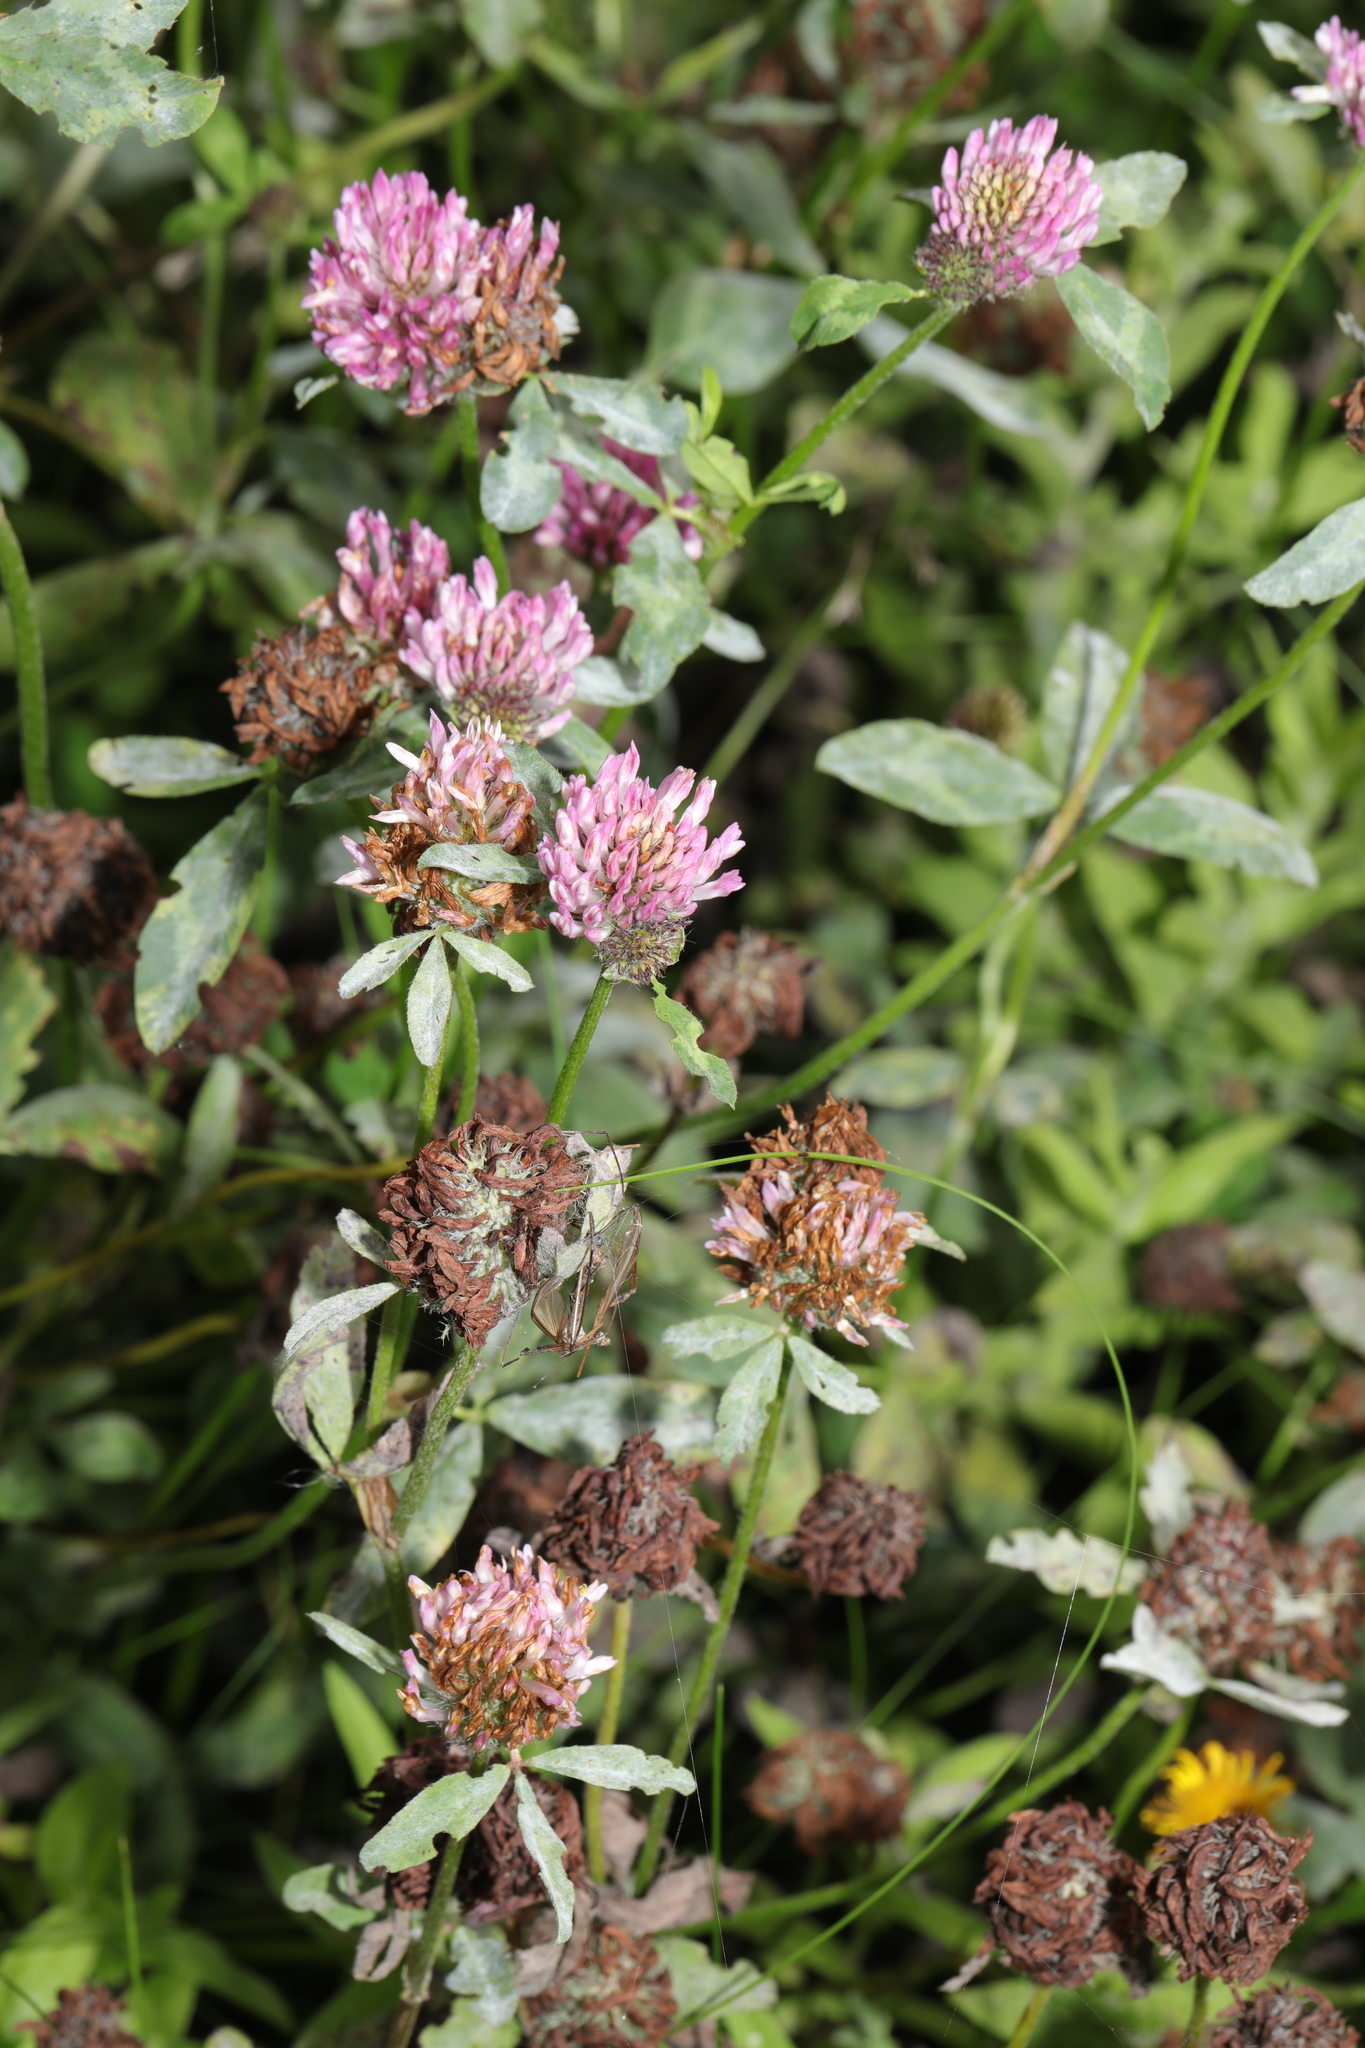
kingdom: Plantae
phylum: Tracheophyta
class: Magnoliopsida
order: Fabales
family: Fabaceae
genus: Trifolium
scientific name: Trifolium pratense
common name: Red clover
